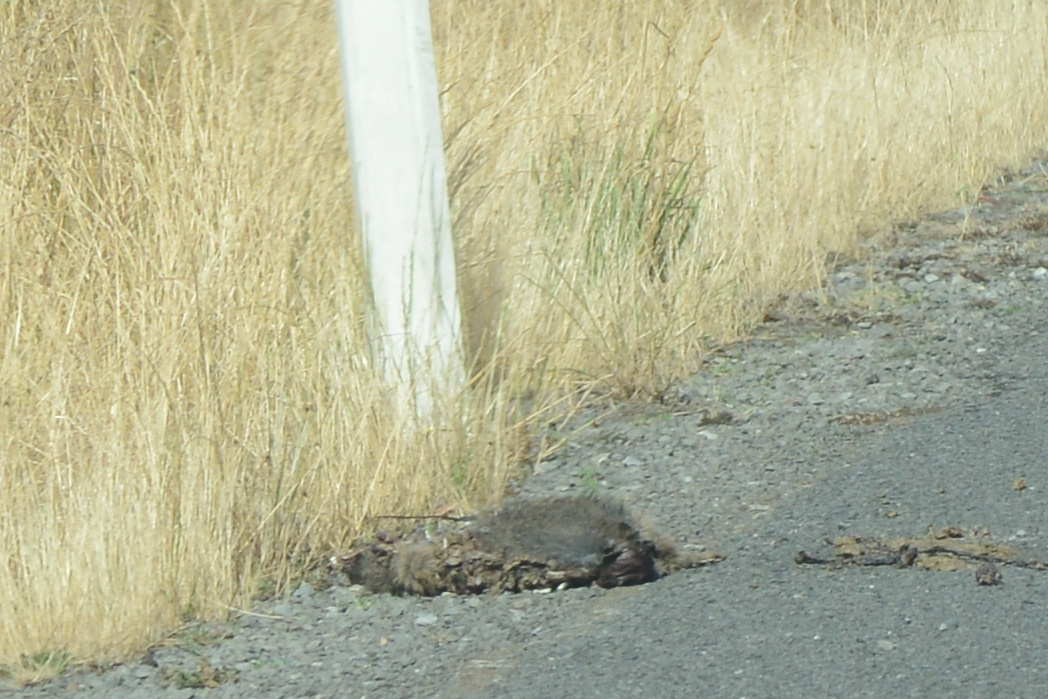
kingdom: Animalia
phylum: Chordata
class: Mammalia
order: Diprotodontia
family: Macropodidae
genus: Thylogale
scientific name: Thylogale billardierii
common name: Tasmanian pademelon
